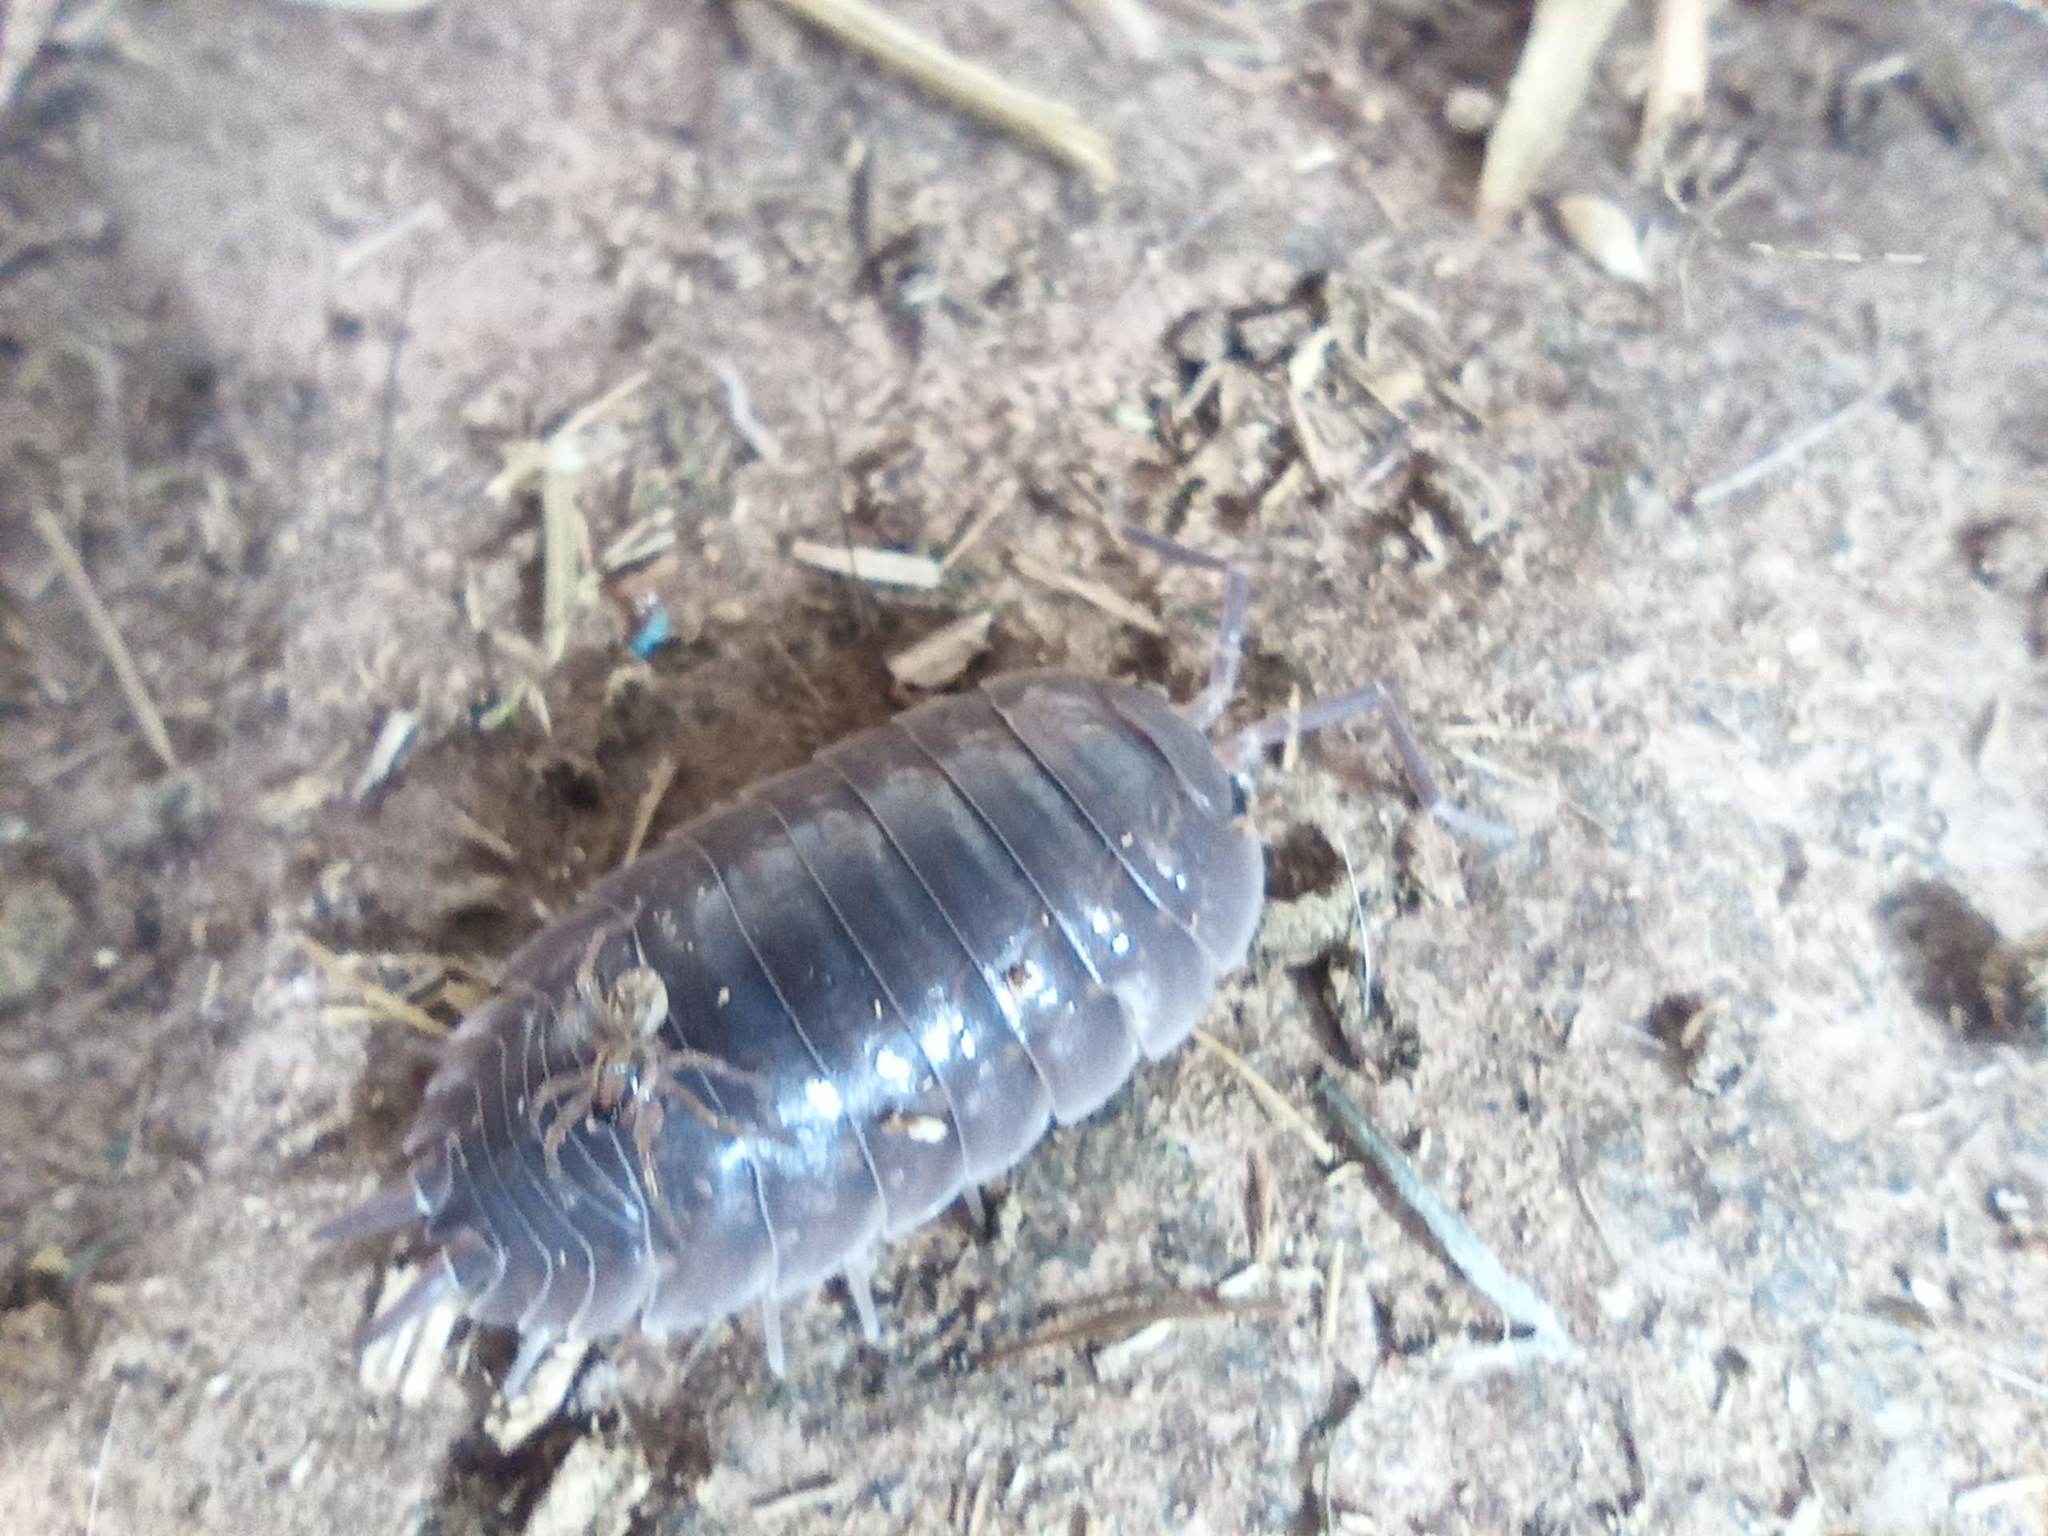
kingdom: Animalia
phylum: Arthropoda
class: Malacostraca
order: Isopoda
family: Porcellionidae
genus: Porcellio
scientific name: Porcellio laevis
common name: Swift woodlouse
